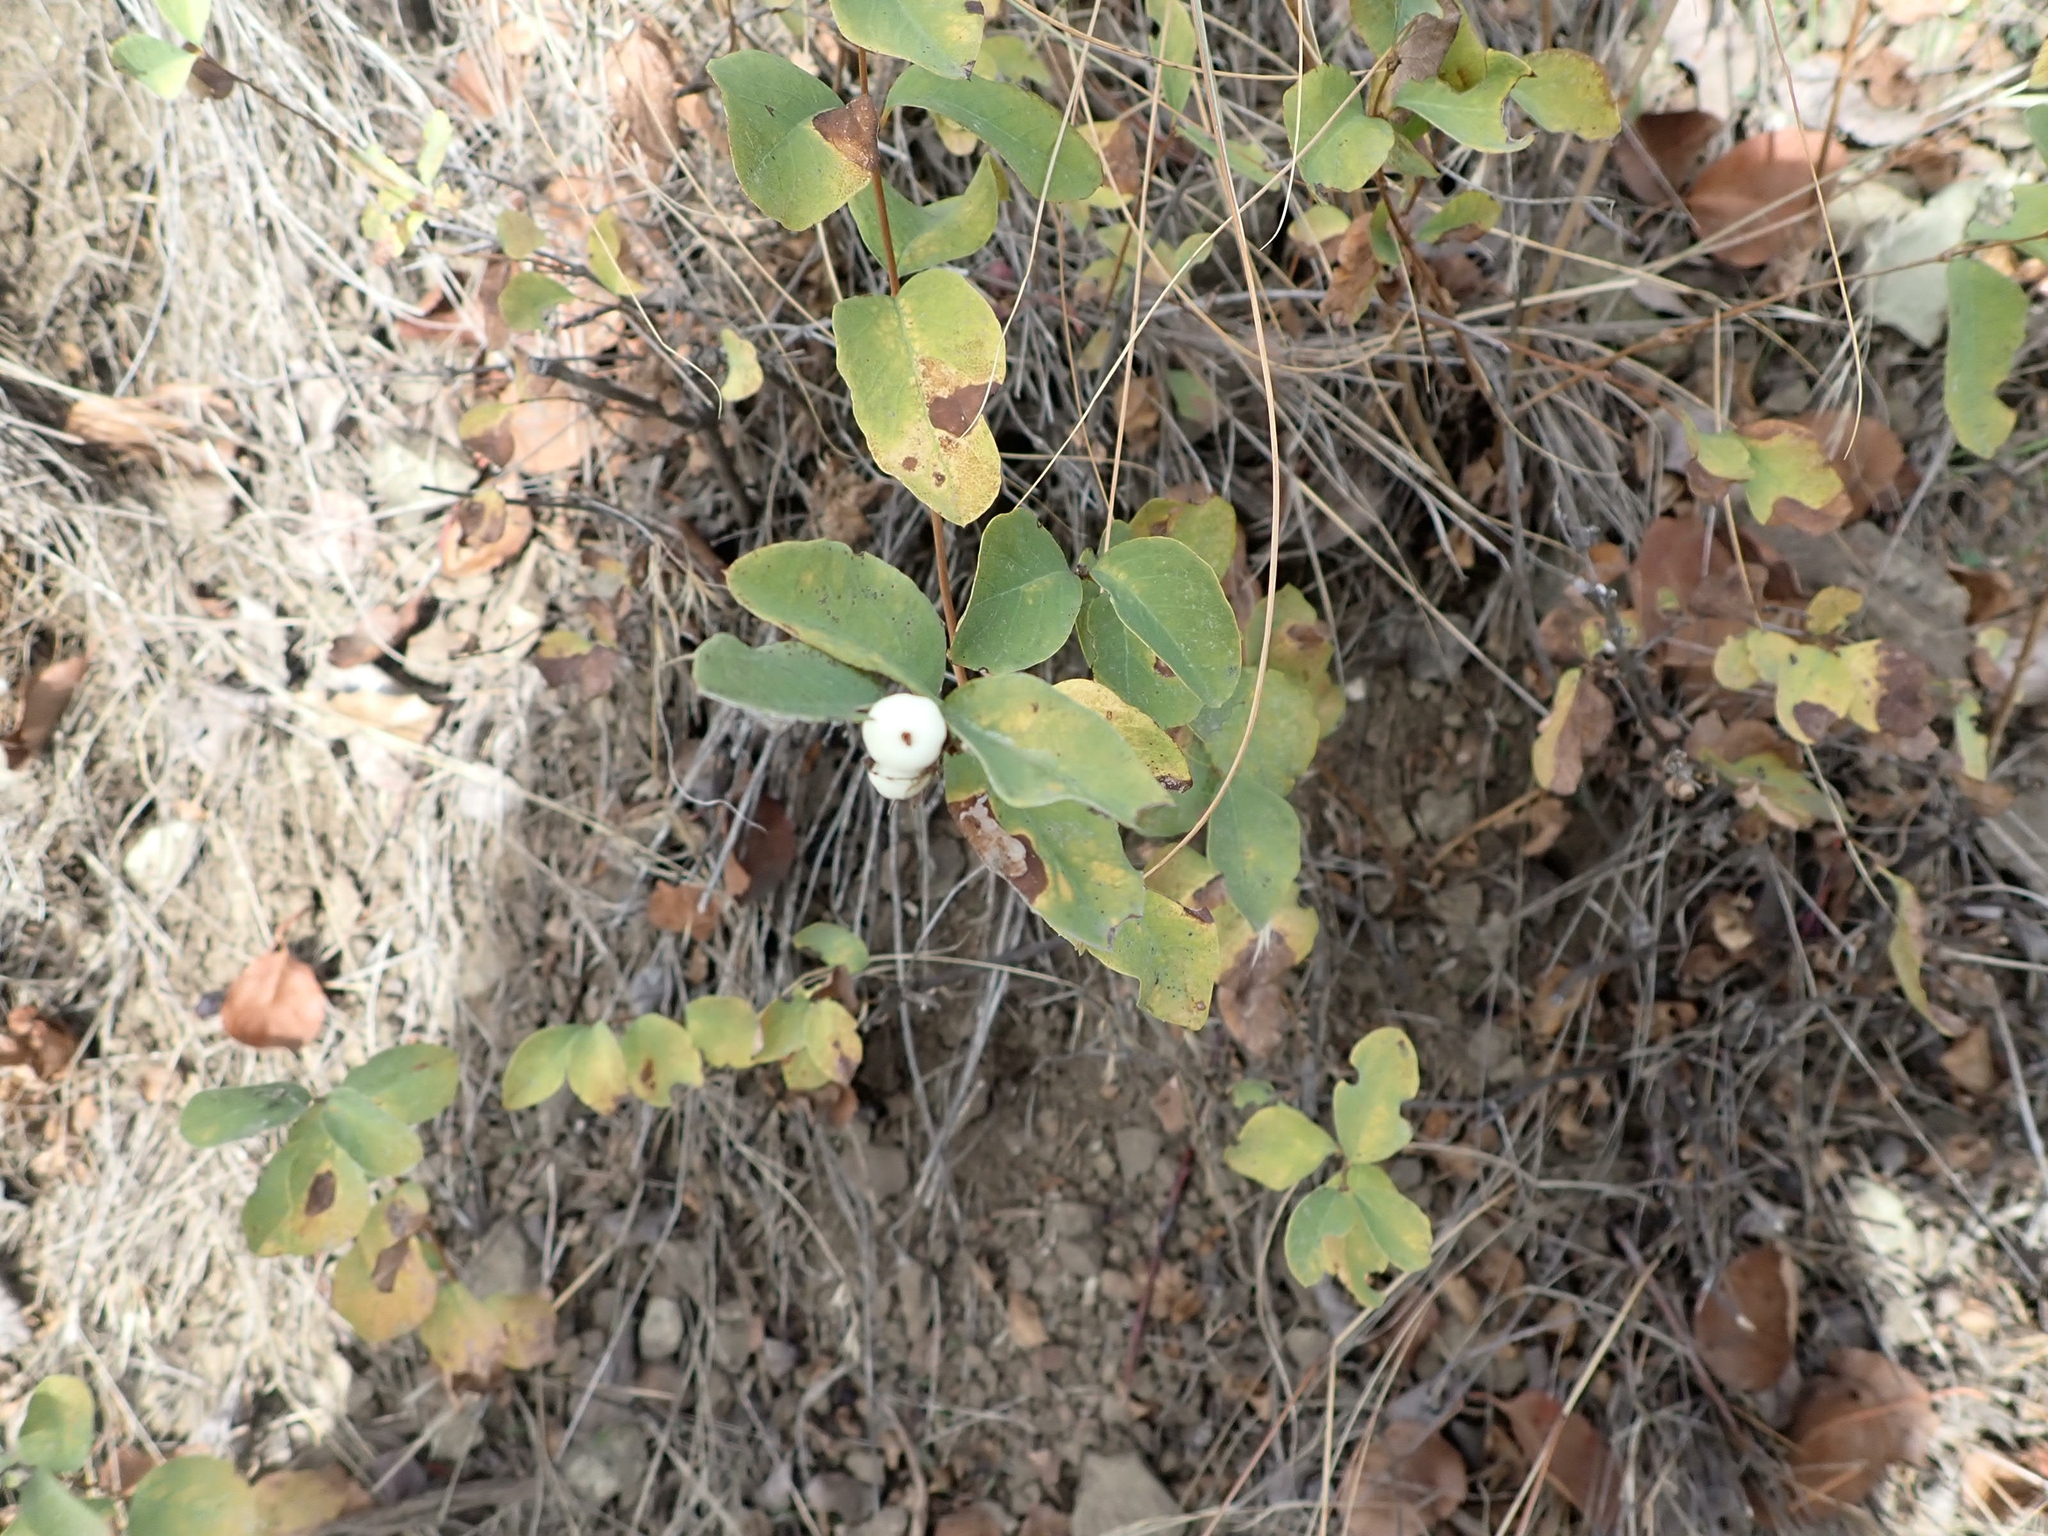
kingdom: Plantae
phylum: Tracheophyta
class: Magnoliopsida
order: Dipsacales
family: Caprifoliaceae
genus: Symphoricarpos
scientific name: Symphoricarpos albus
